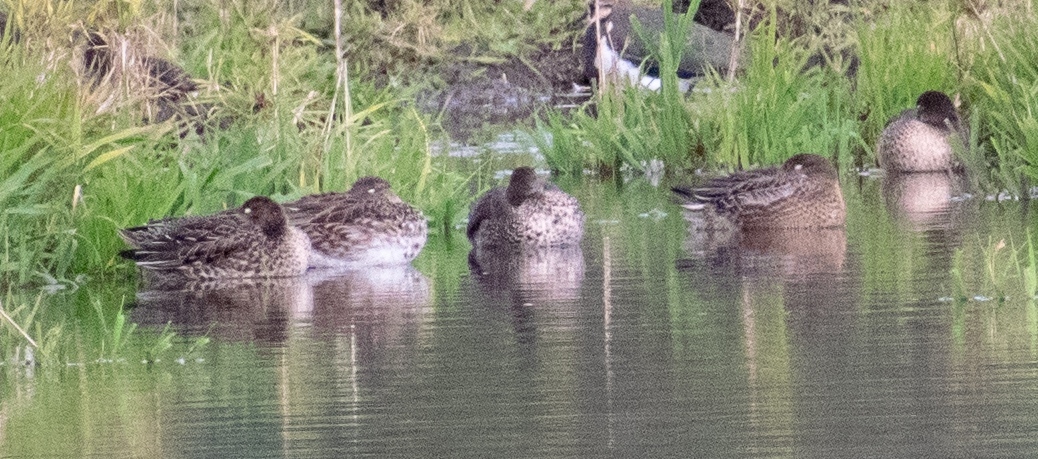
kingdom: Animalia
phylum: Chordata
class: Aves
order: Anseriformes
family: Anatidae
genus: Anas
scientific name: Anas crecca
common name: Eurasian teal
